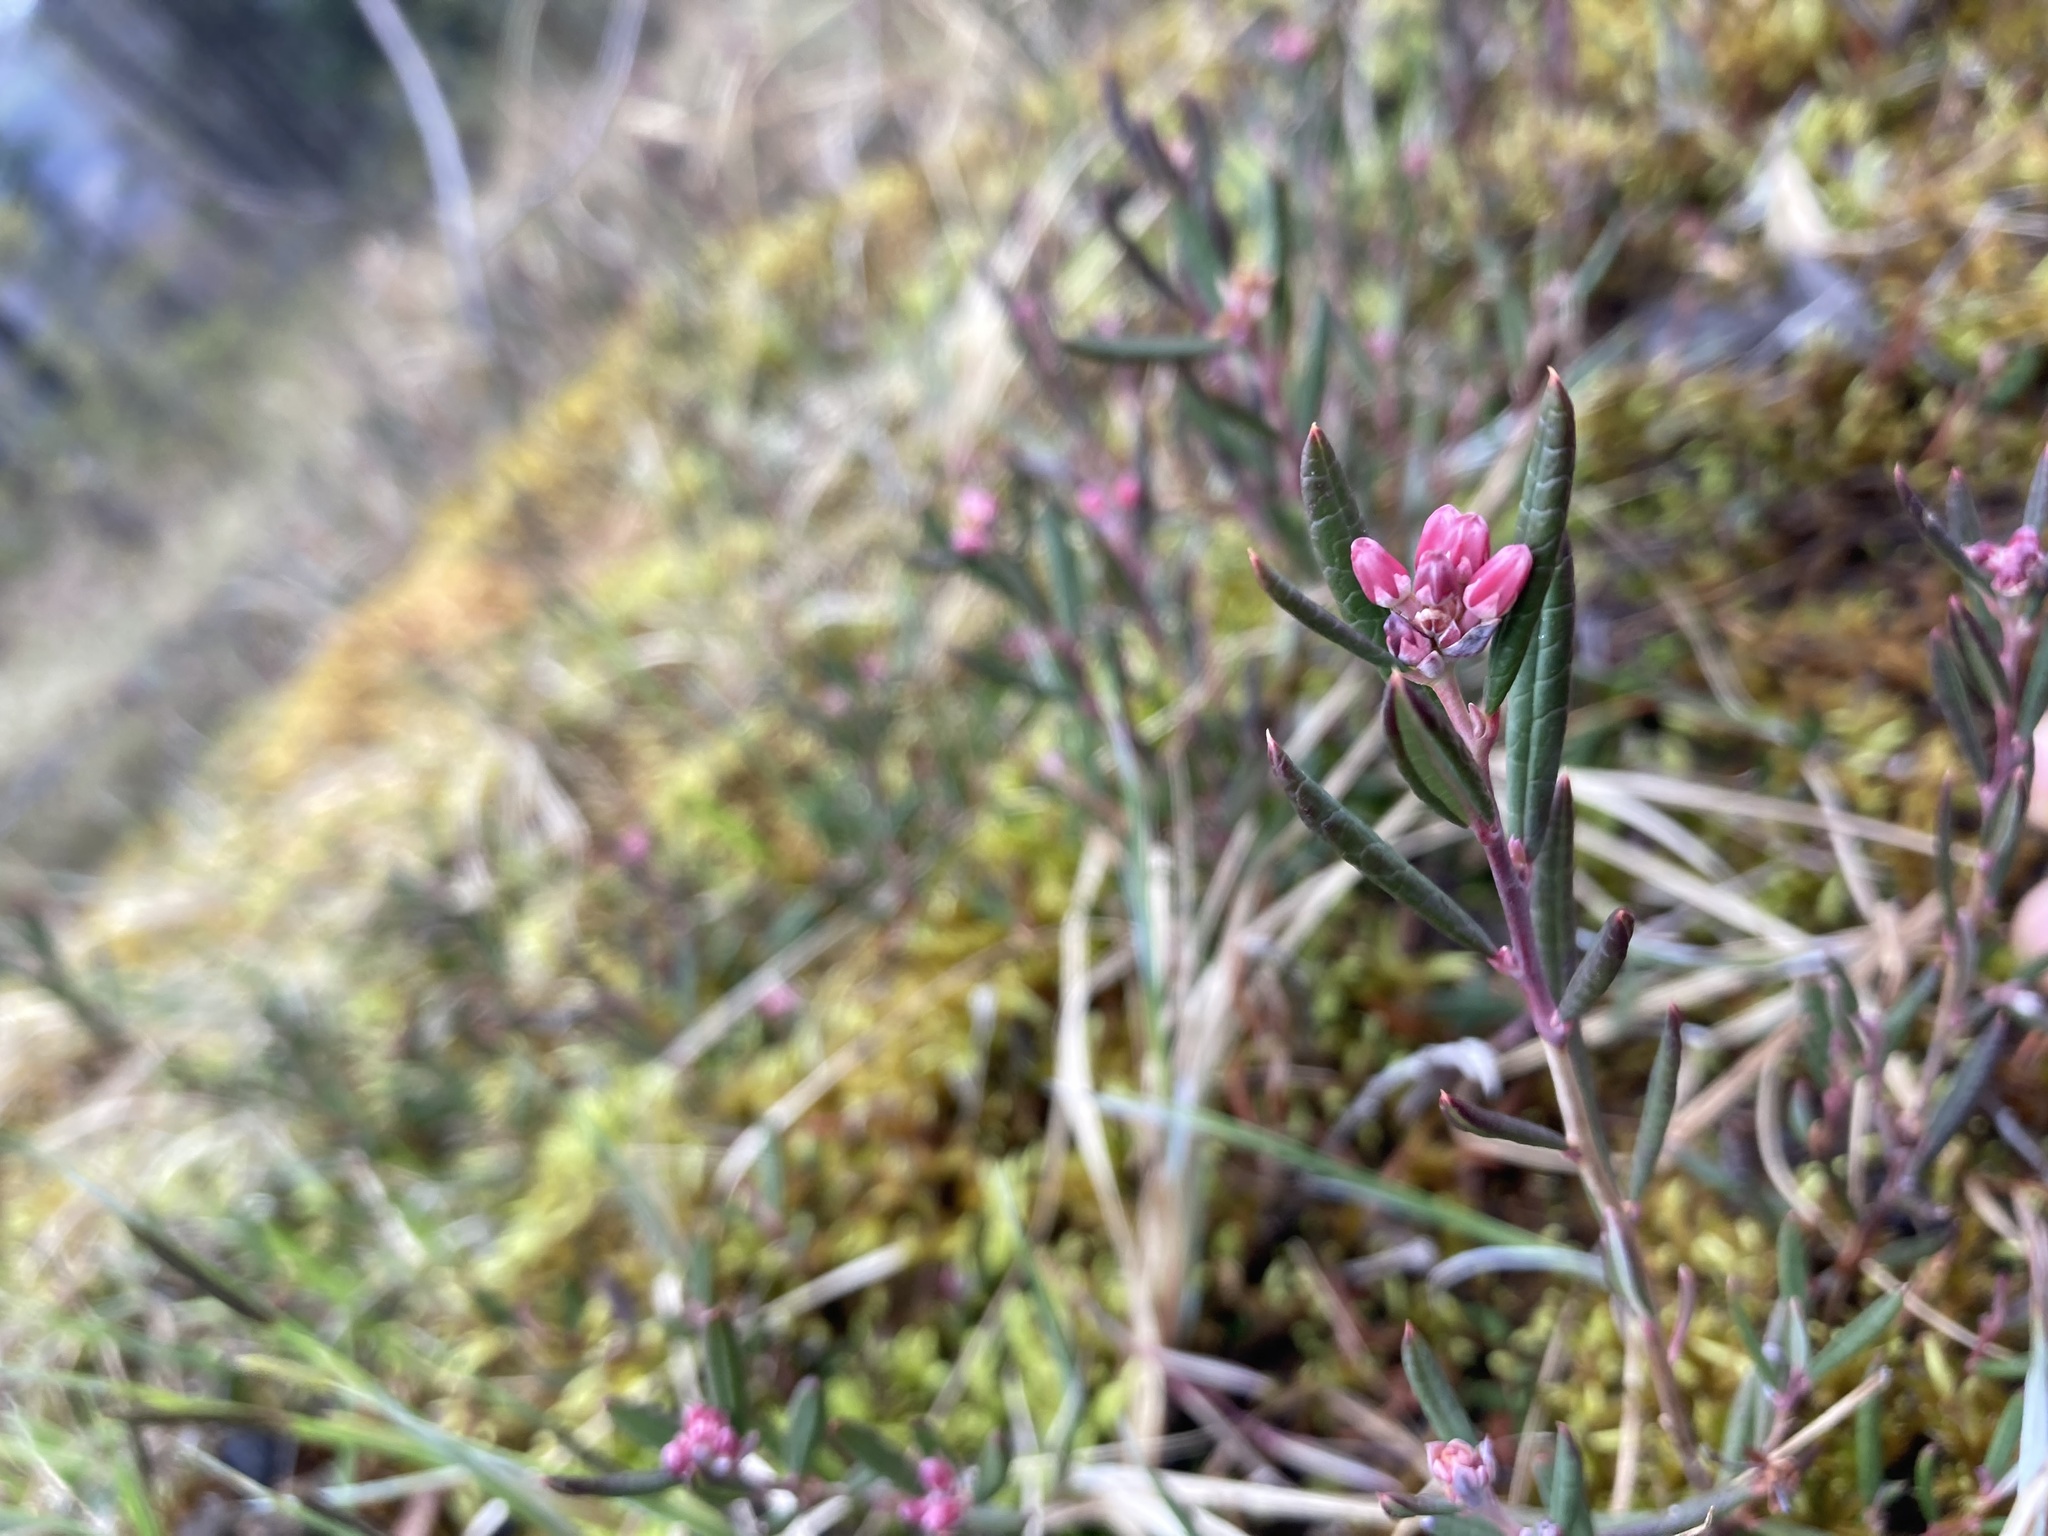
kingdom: Plantae
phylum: Tracheophyta
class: Magnoliopsida
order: Ericales
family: Ericaceae
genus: Andromeda
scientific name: Andromeda polifolia
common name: Bog-rosemary
